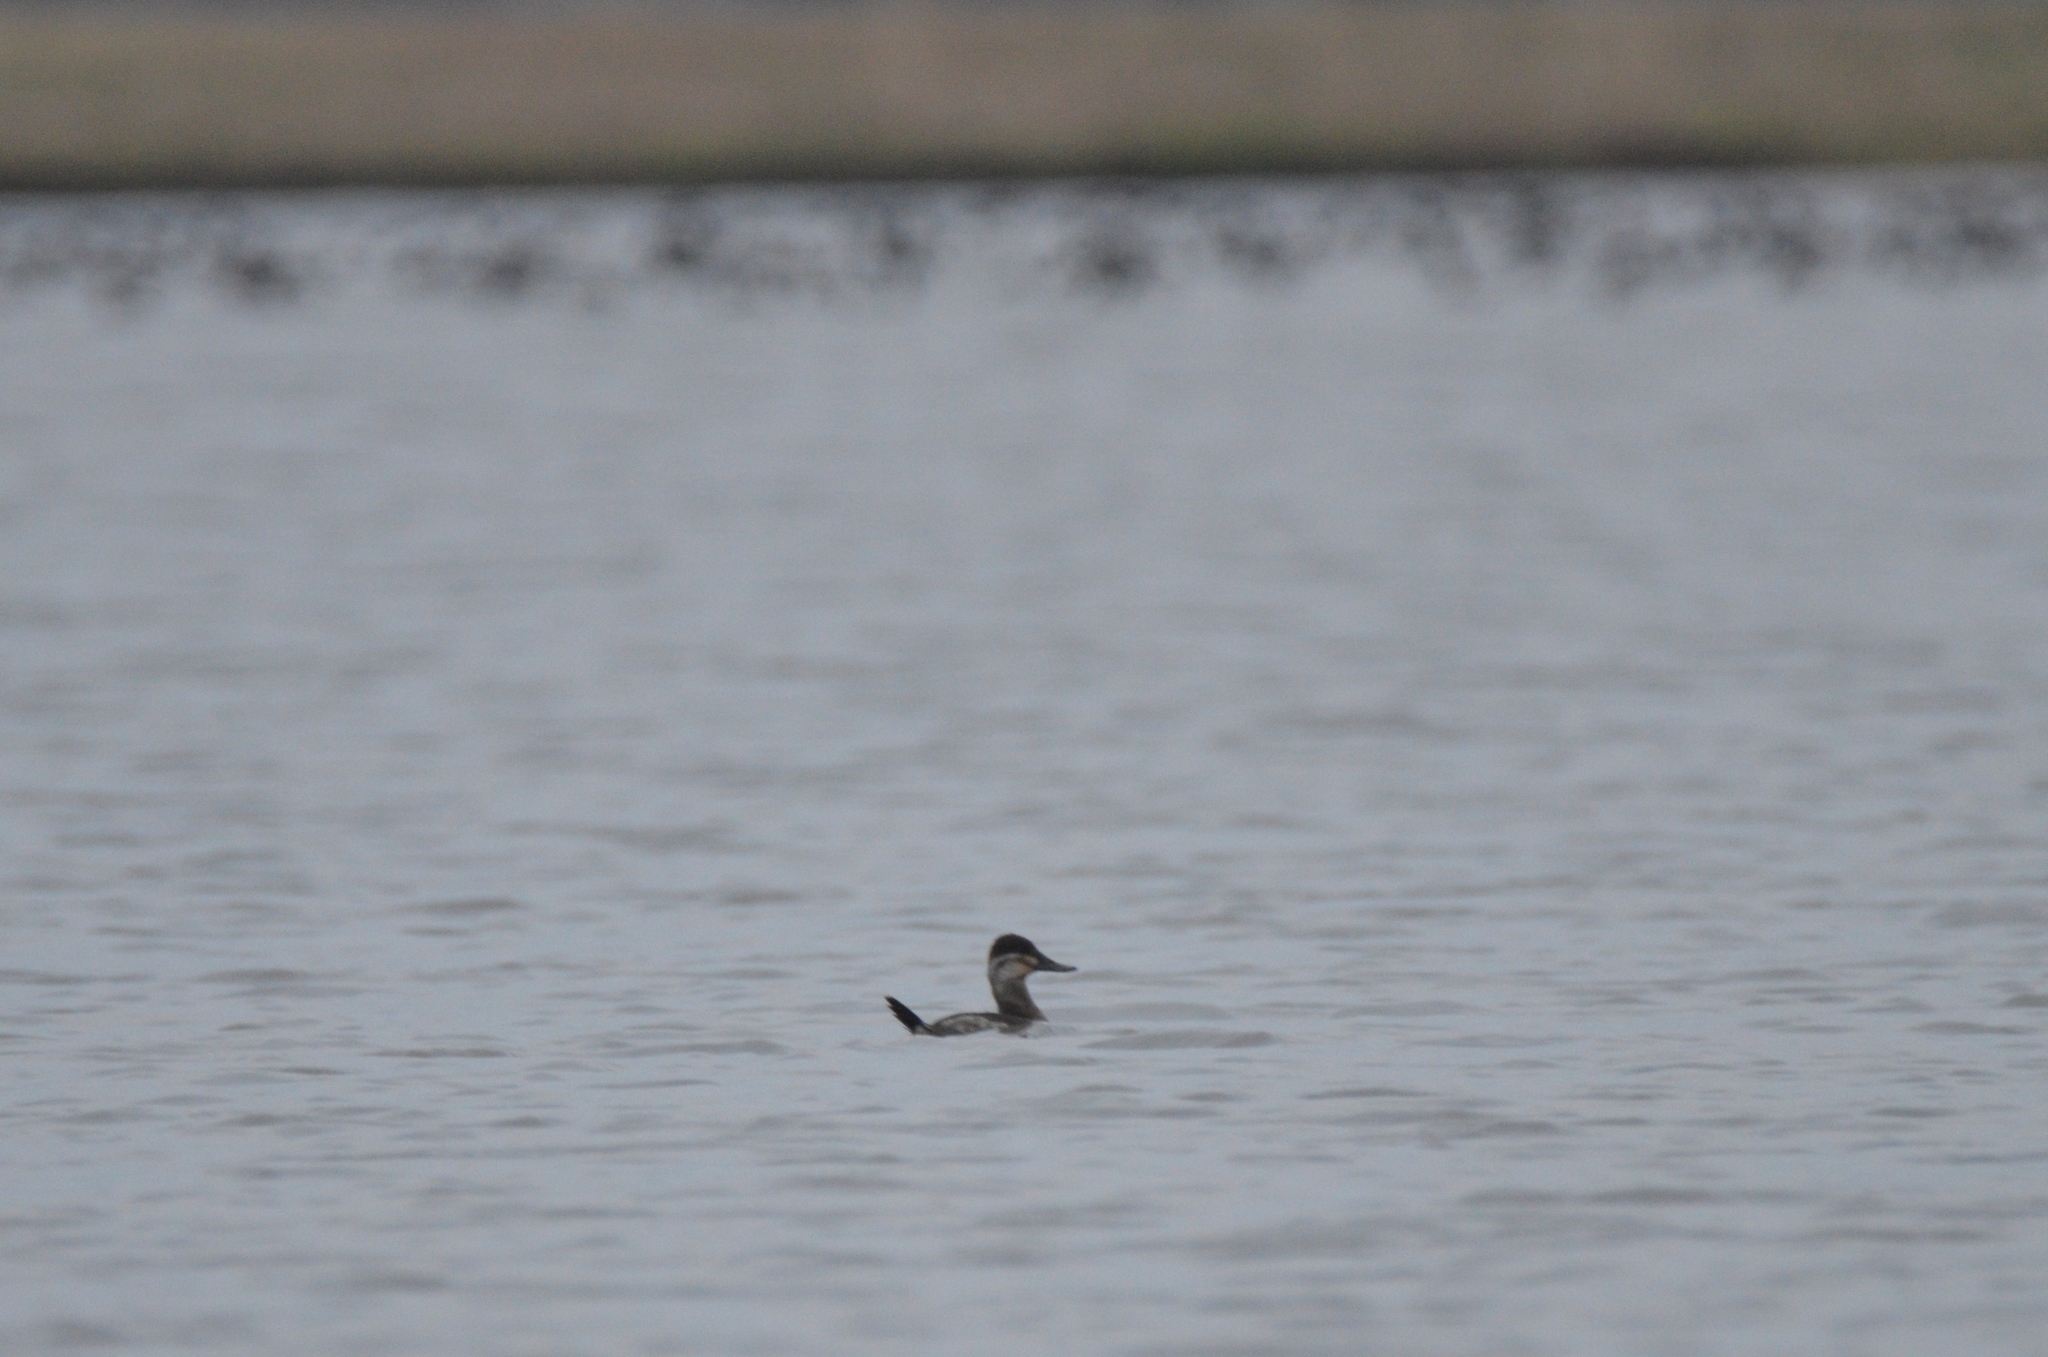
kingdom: Animalia
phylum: Chordata
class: Aves
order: Anseriformes
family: Anatidae
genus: Oxyura
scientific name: Oxyura jamaicensis
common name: Ruddy duck
